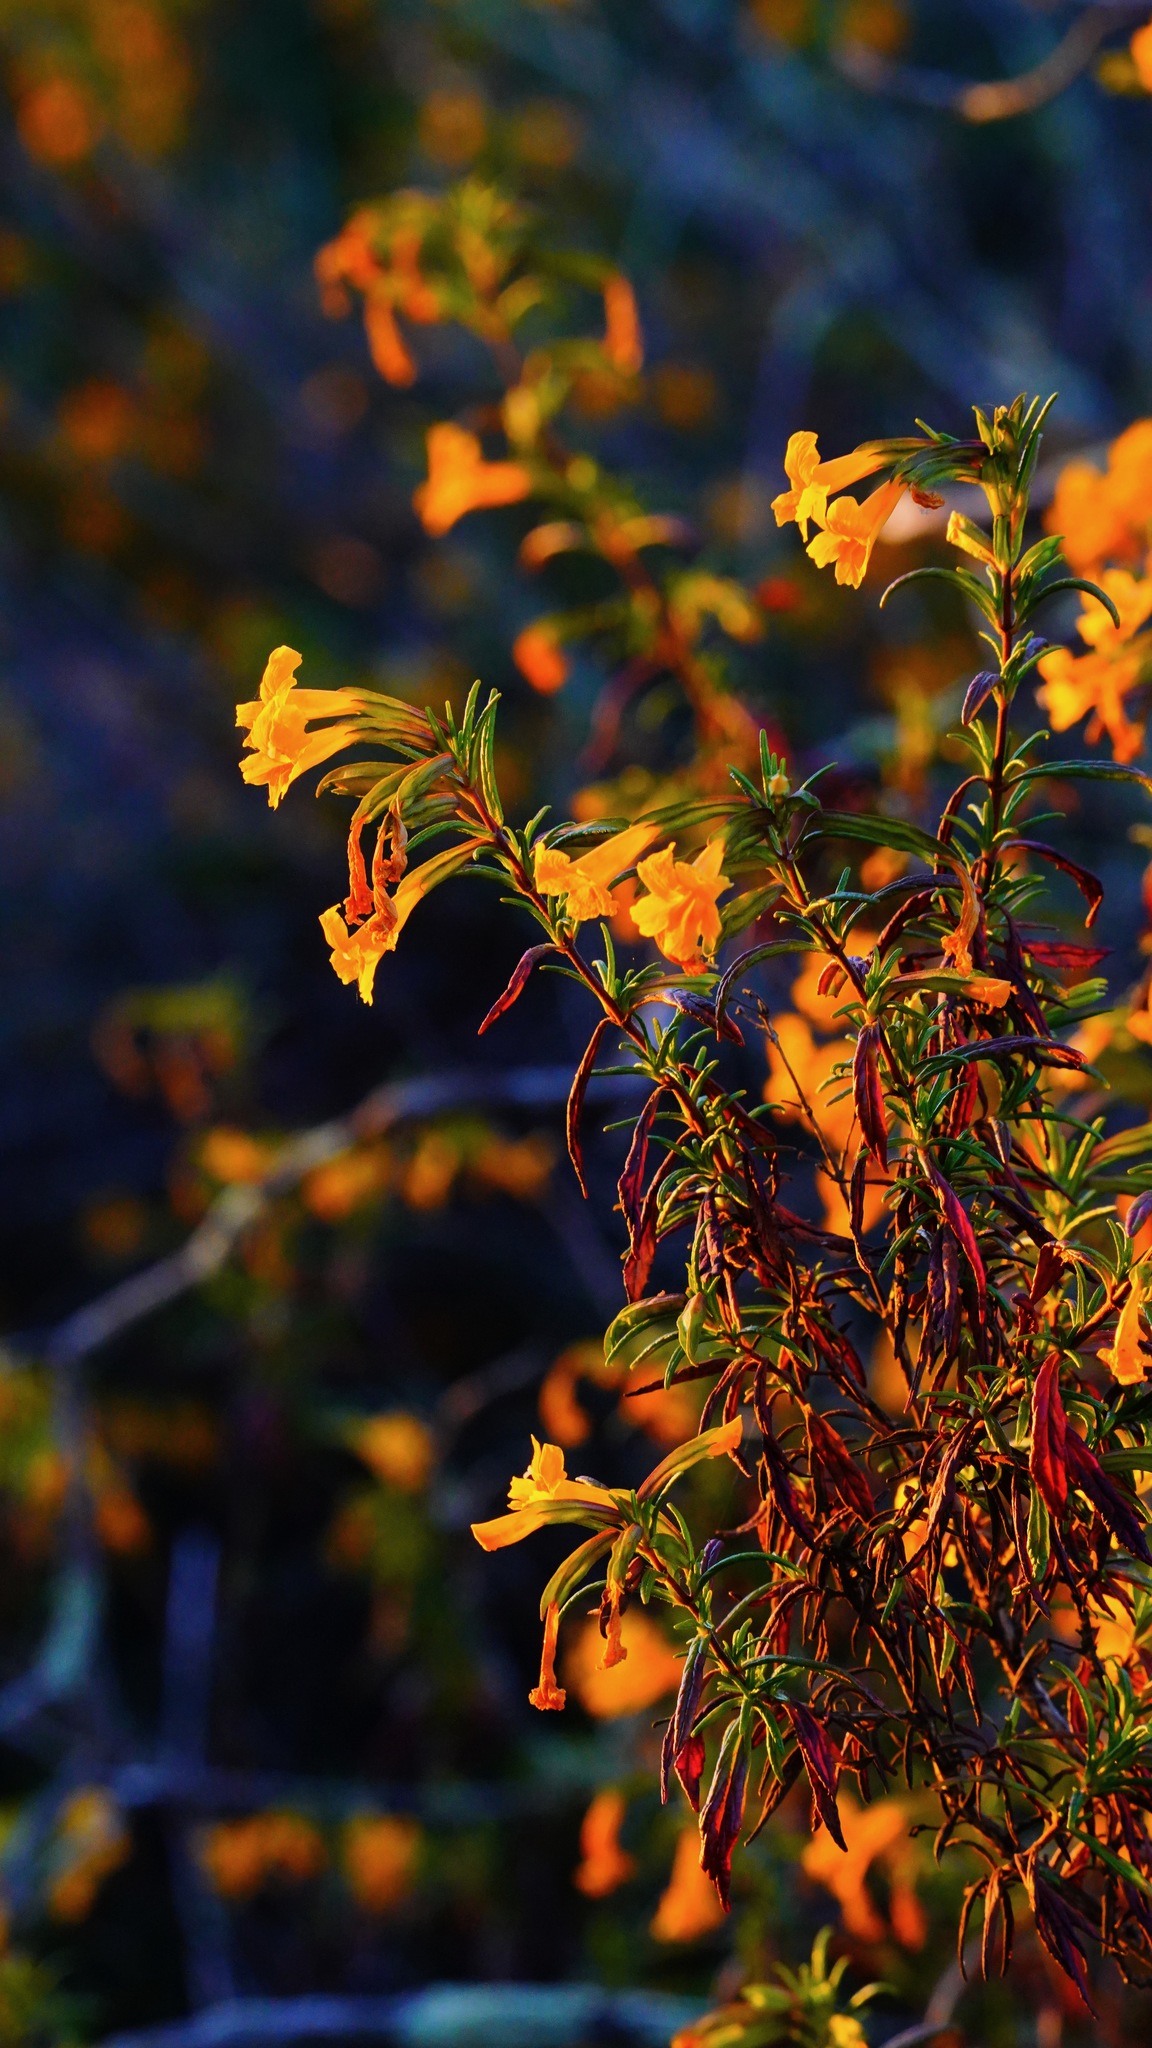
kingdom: Plantae
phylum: Tracheophyta
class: Magnoliopsida
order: Lamiales
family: Phrymaceae
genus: Diplacus
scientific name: Diplacus aurantiacus
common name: Bush monkey-flower
